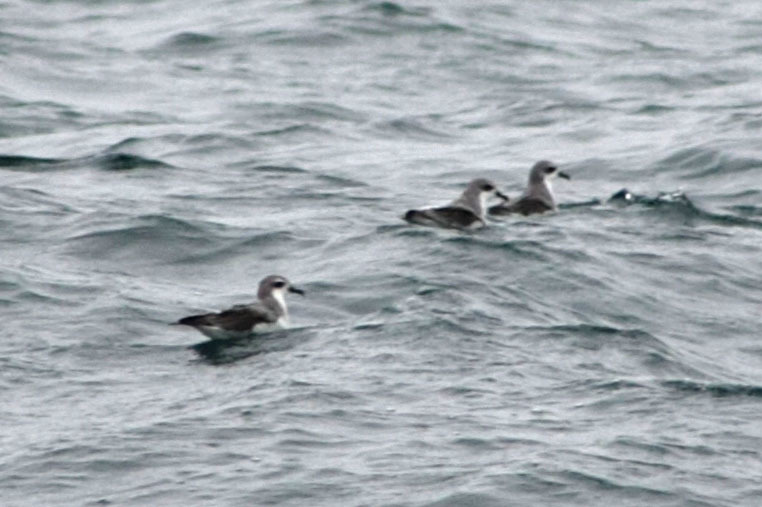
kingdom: Animalia
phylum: Chordata
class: Aves
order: Procellariiformes
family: Procellariidae
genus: Pterodroma
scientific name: Pterodroma cookii
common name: Cook's petrel
